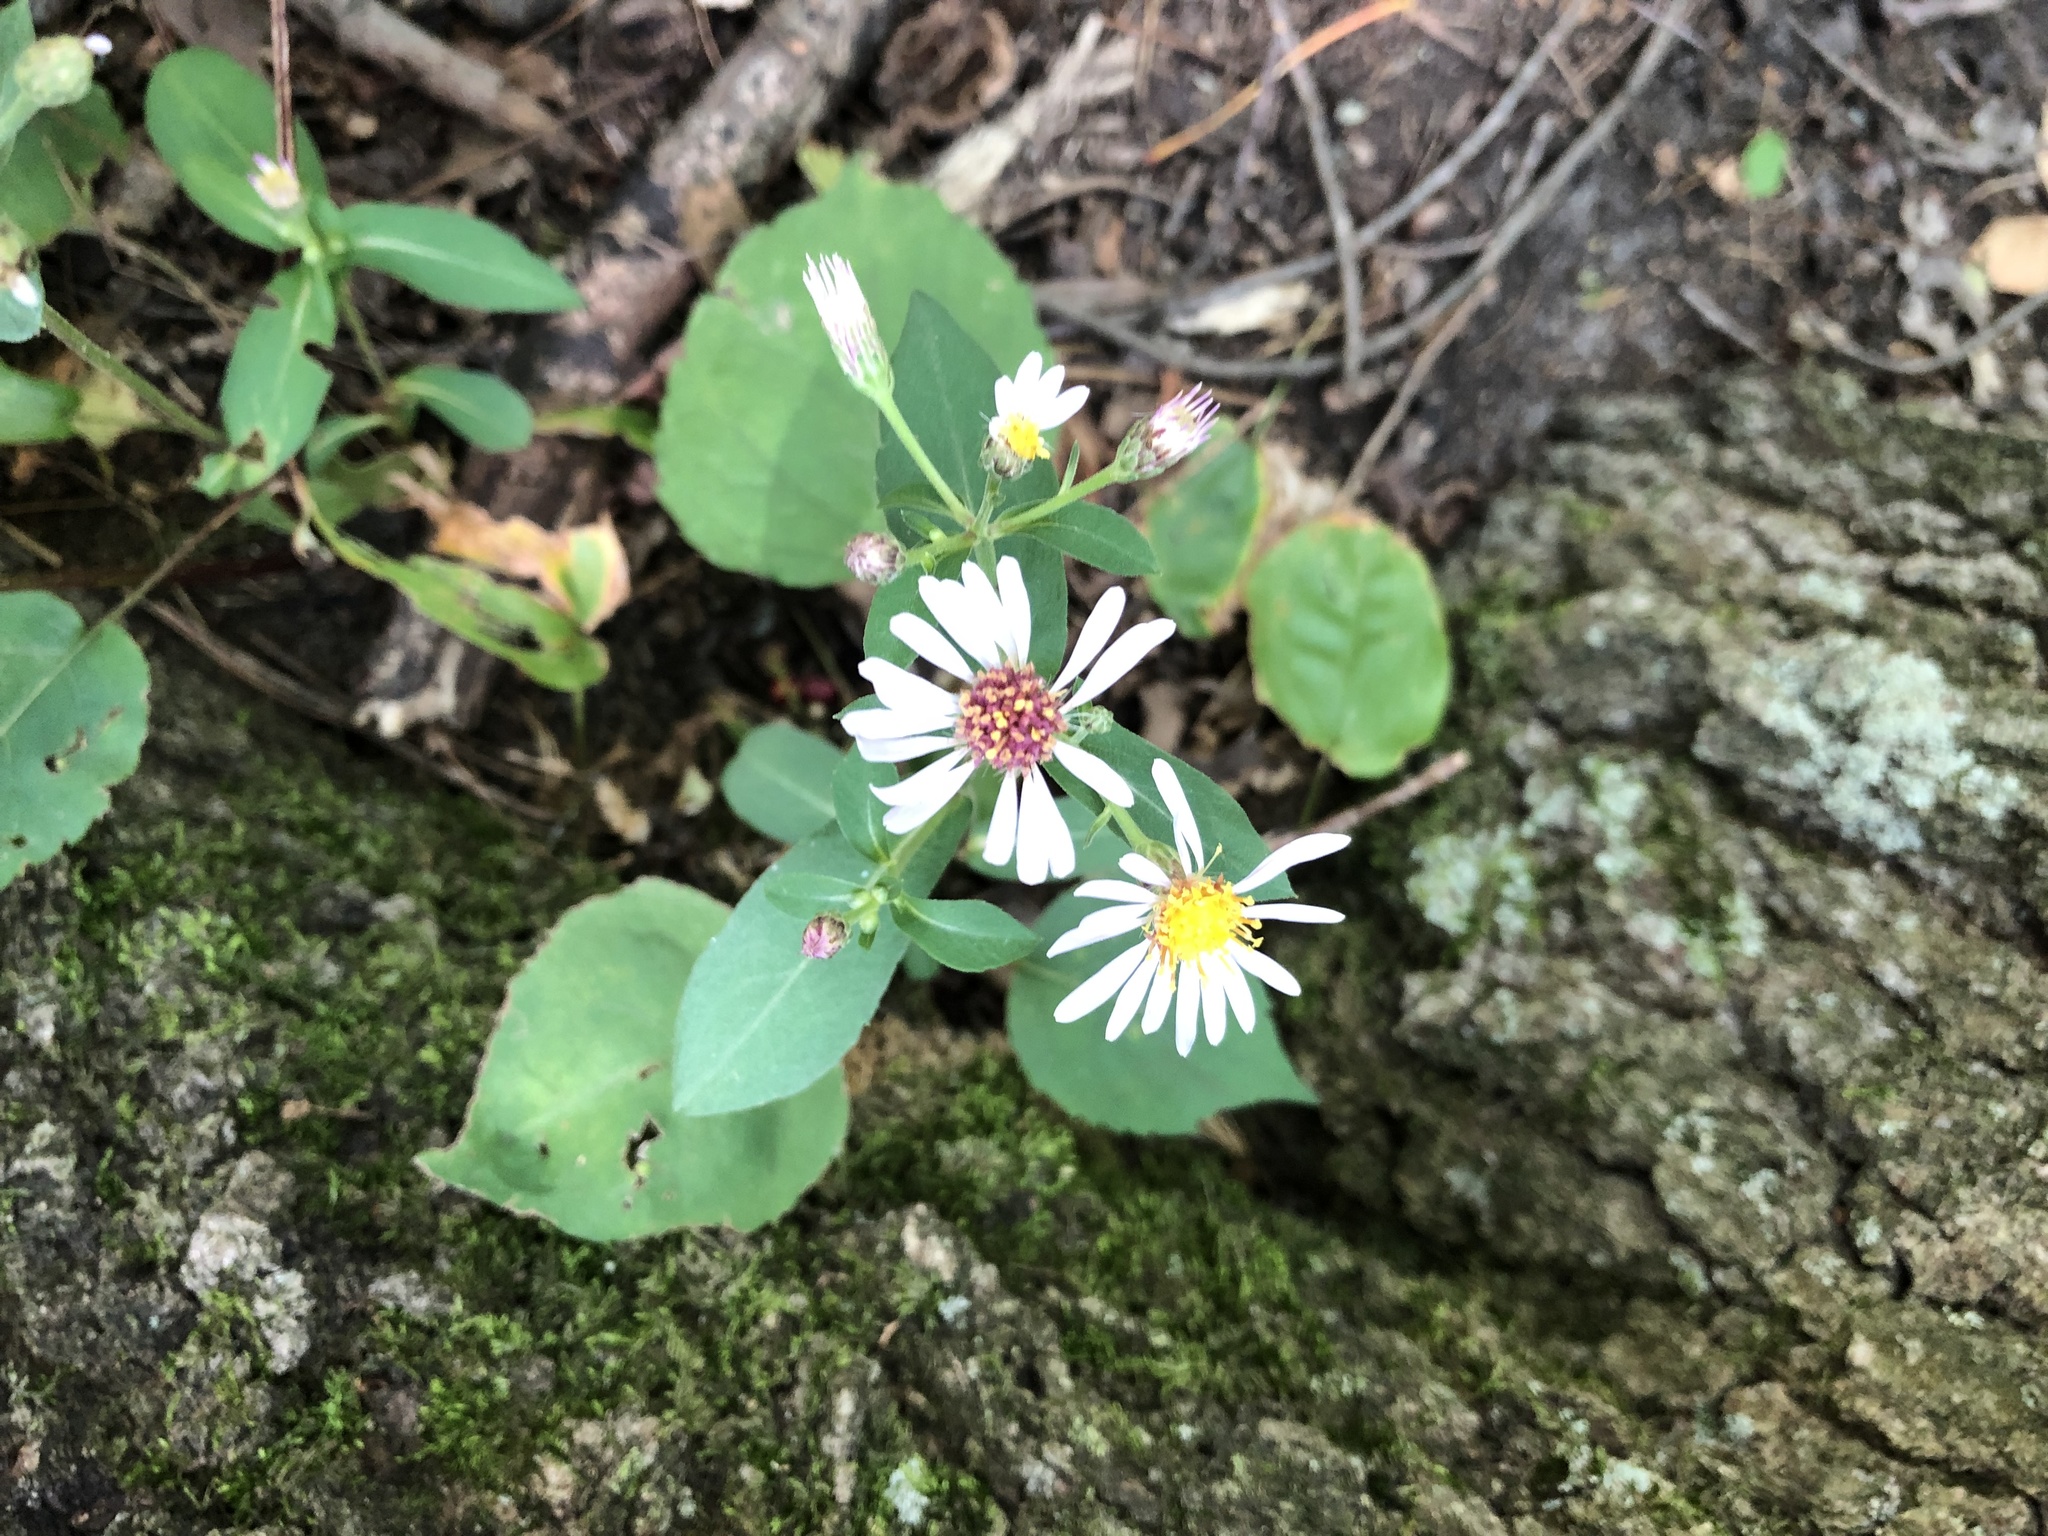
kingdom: Plantae
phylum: Tracheophyta
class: Magnoliopsida
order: Asterales
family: Asteraceae
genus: Eurybia
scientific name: Eurybia macrophylla
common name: Big-leaved aster
